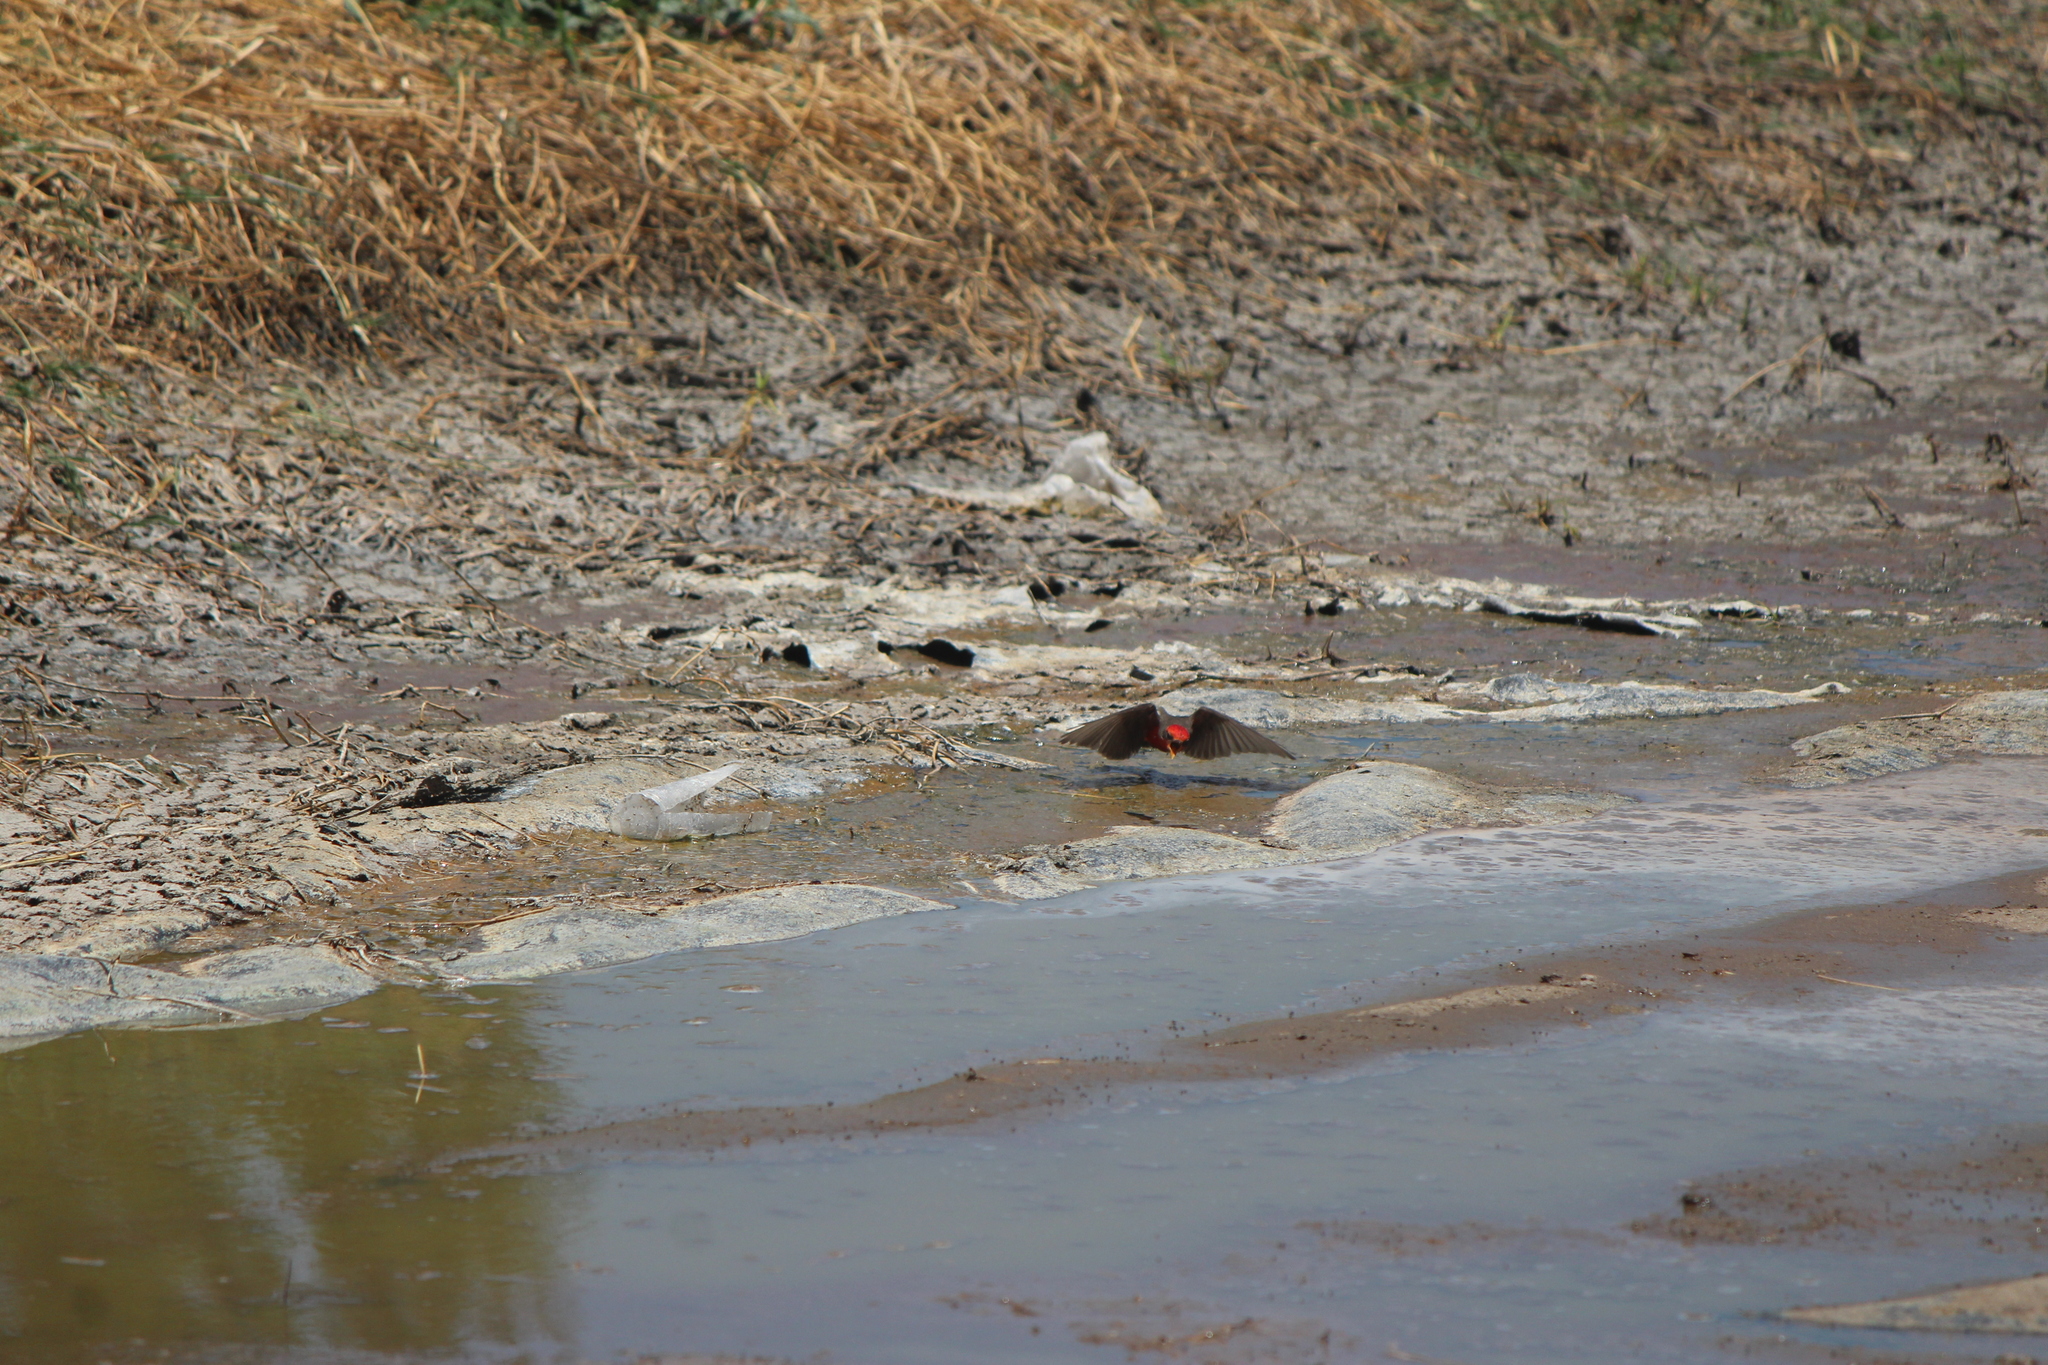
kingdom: Animalia
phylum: Chordata
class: Aves
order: Passeriformes
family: Tyrannidae
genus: Pyrocephalus
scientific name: Pyrocephalus rubinus
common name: Vermilion flycatcher
